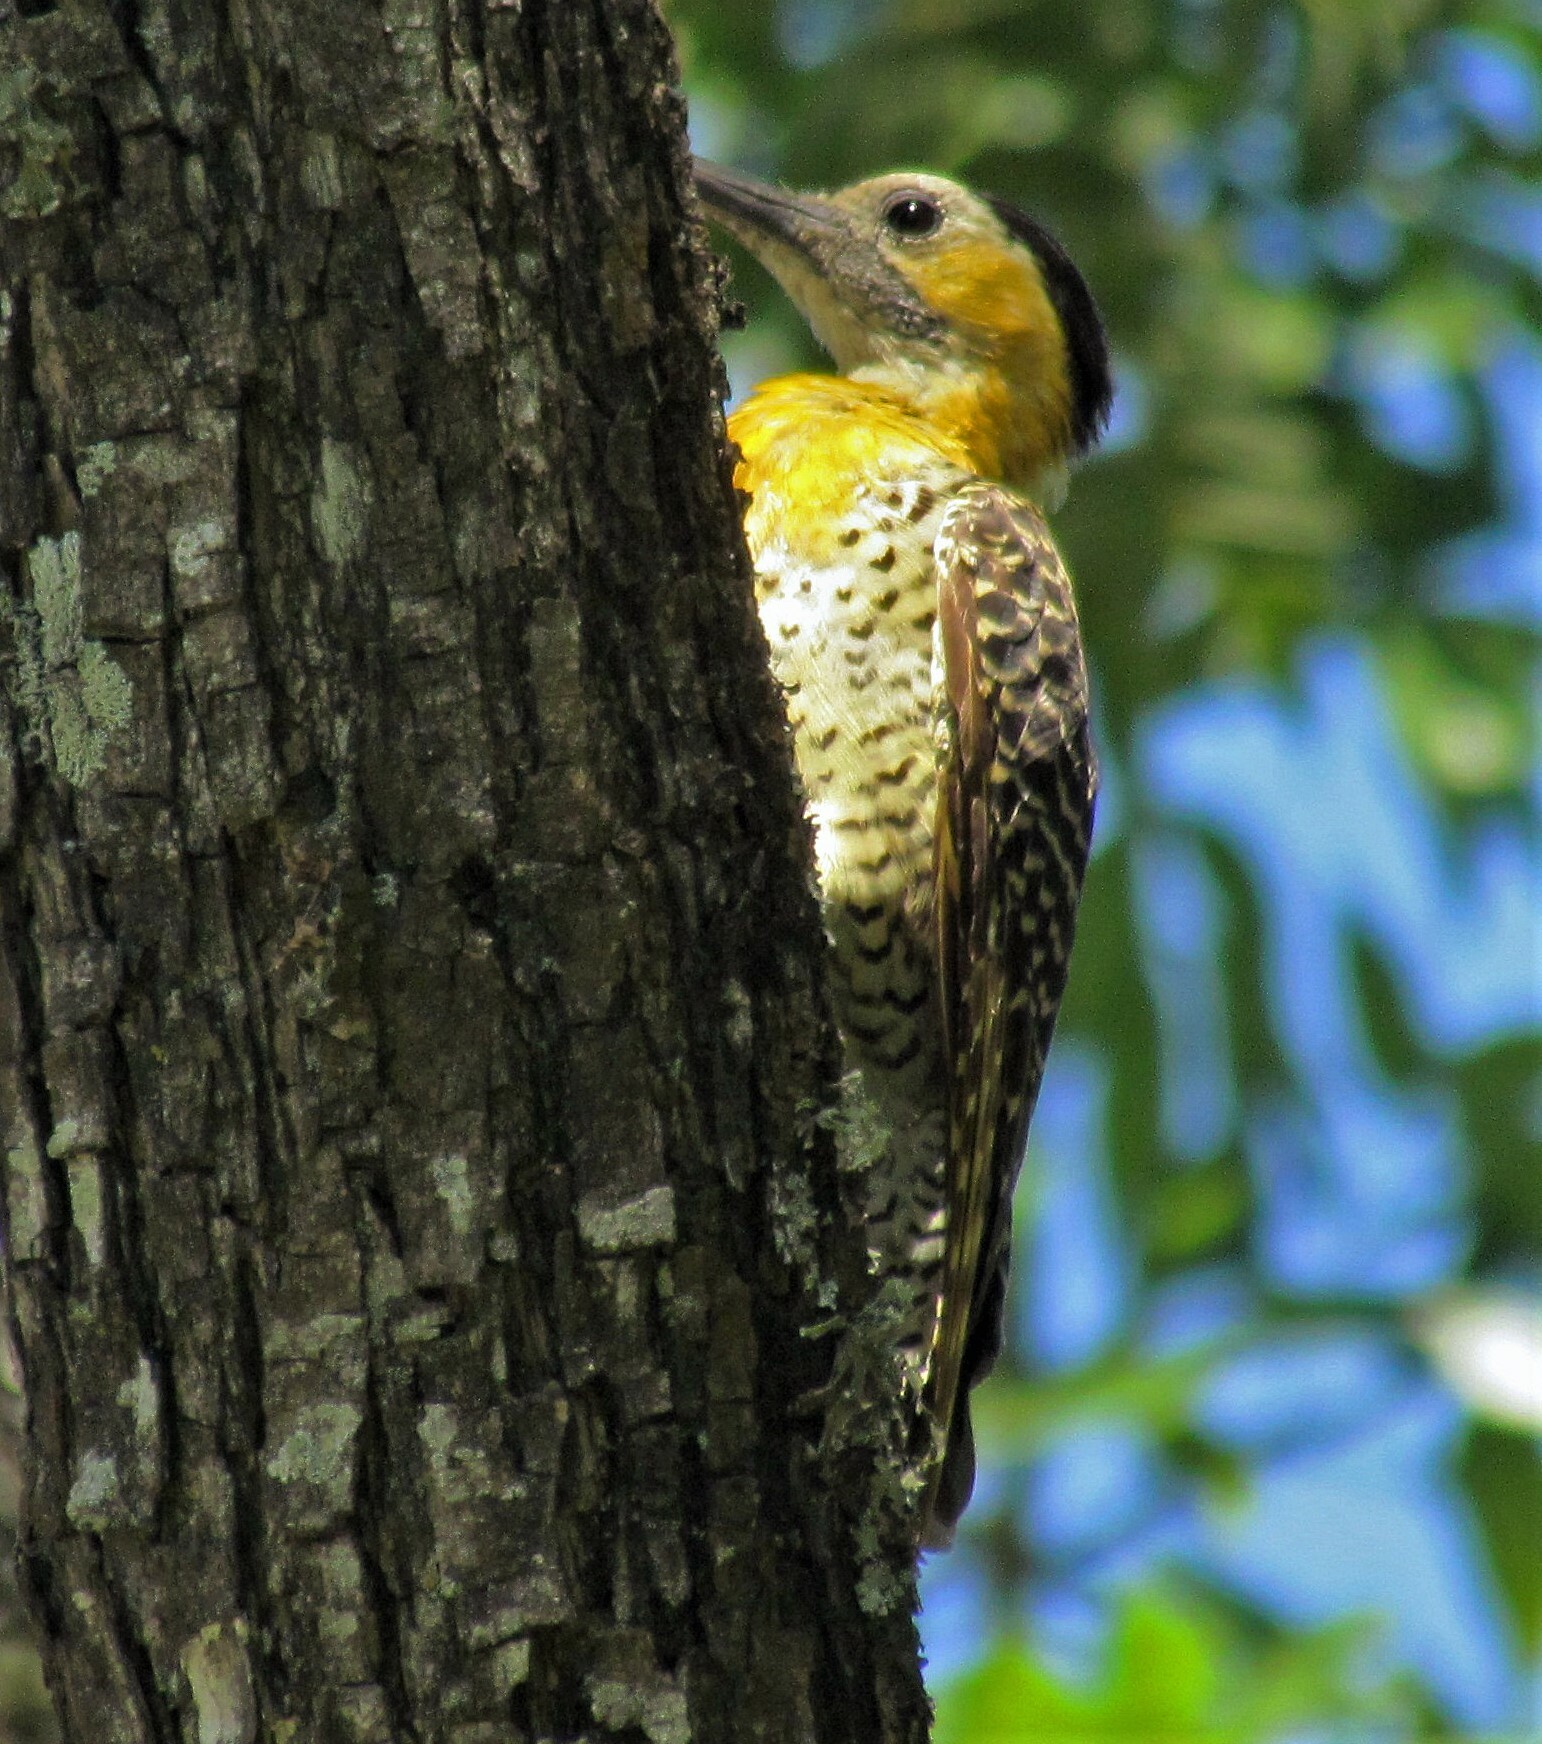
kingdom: Animalia
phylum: Chordata
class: Aves
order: Piciformes
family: Picidae
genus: Colaptes
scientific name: Colaptes campestris
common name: Campo flicker
